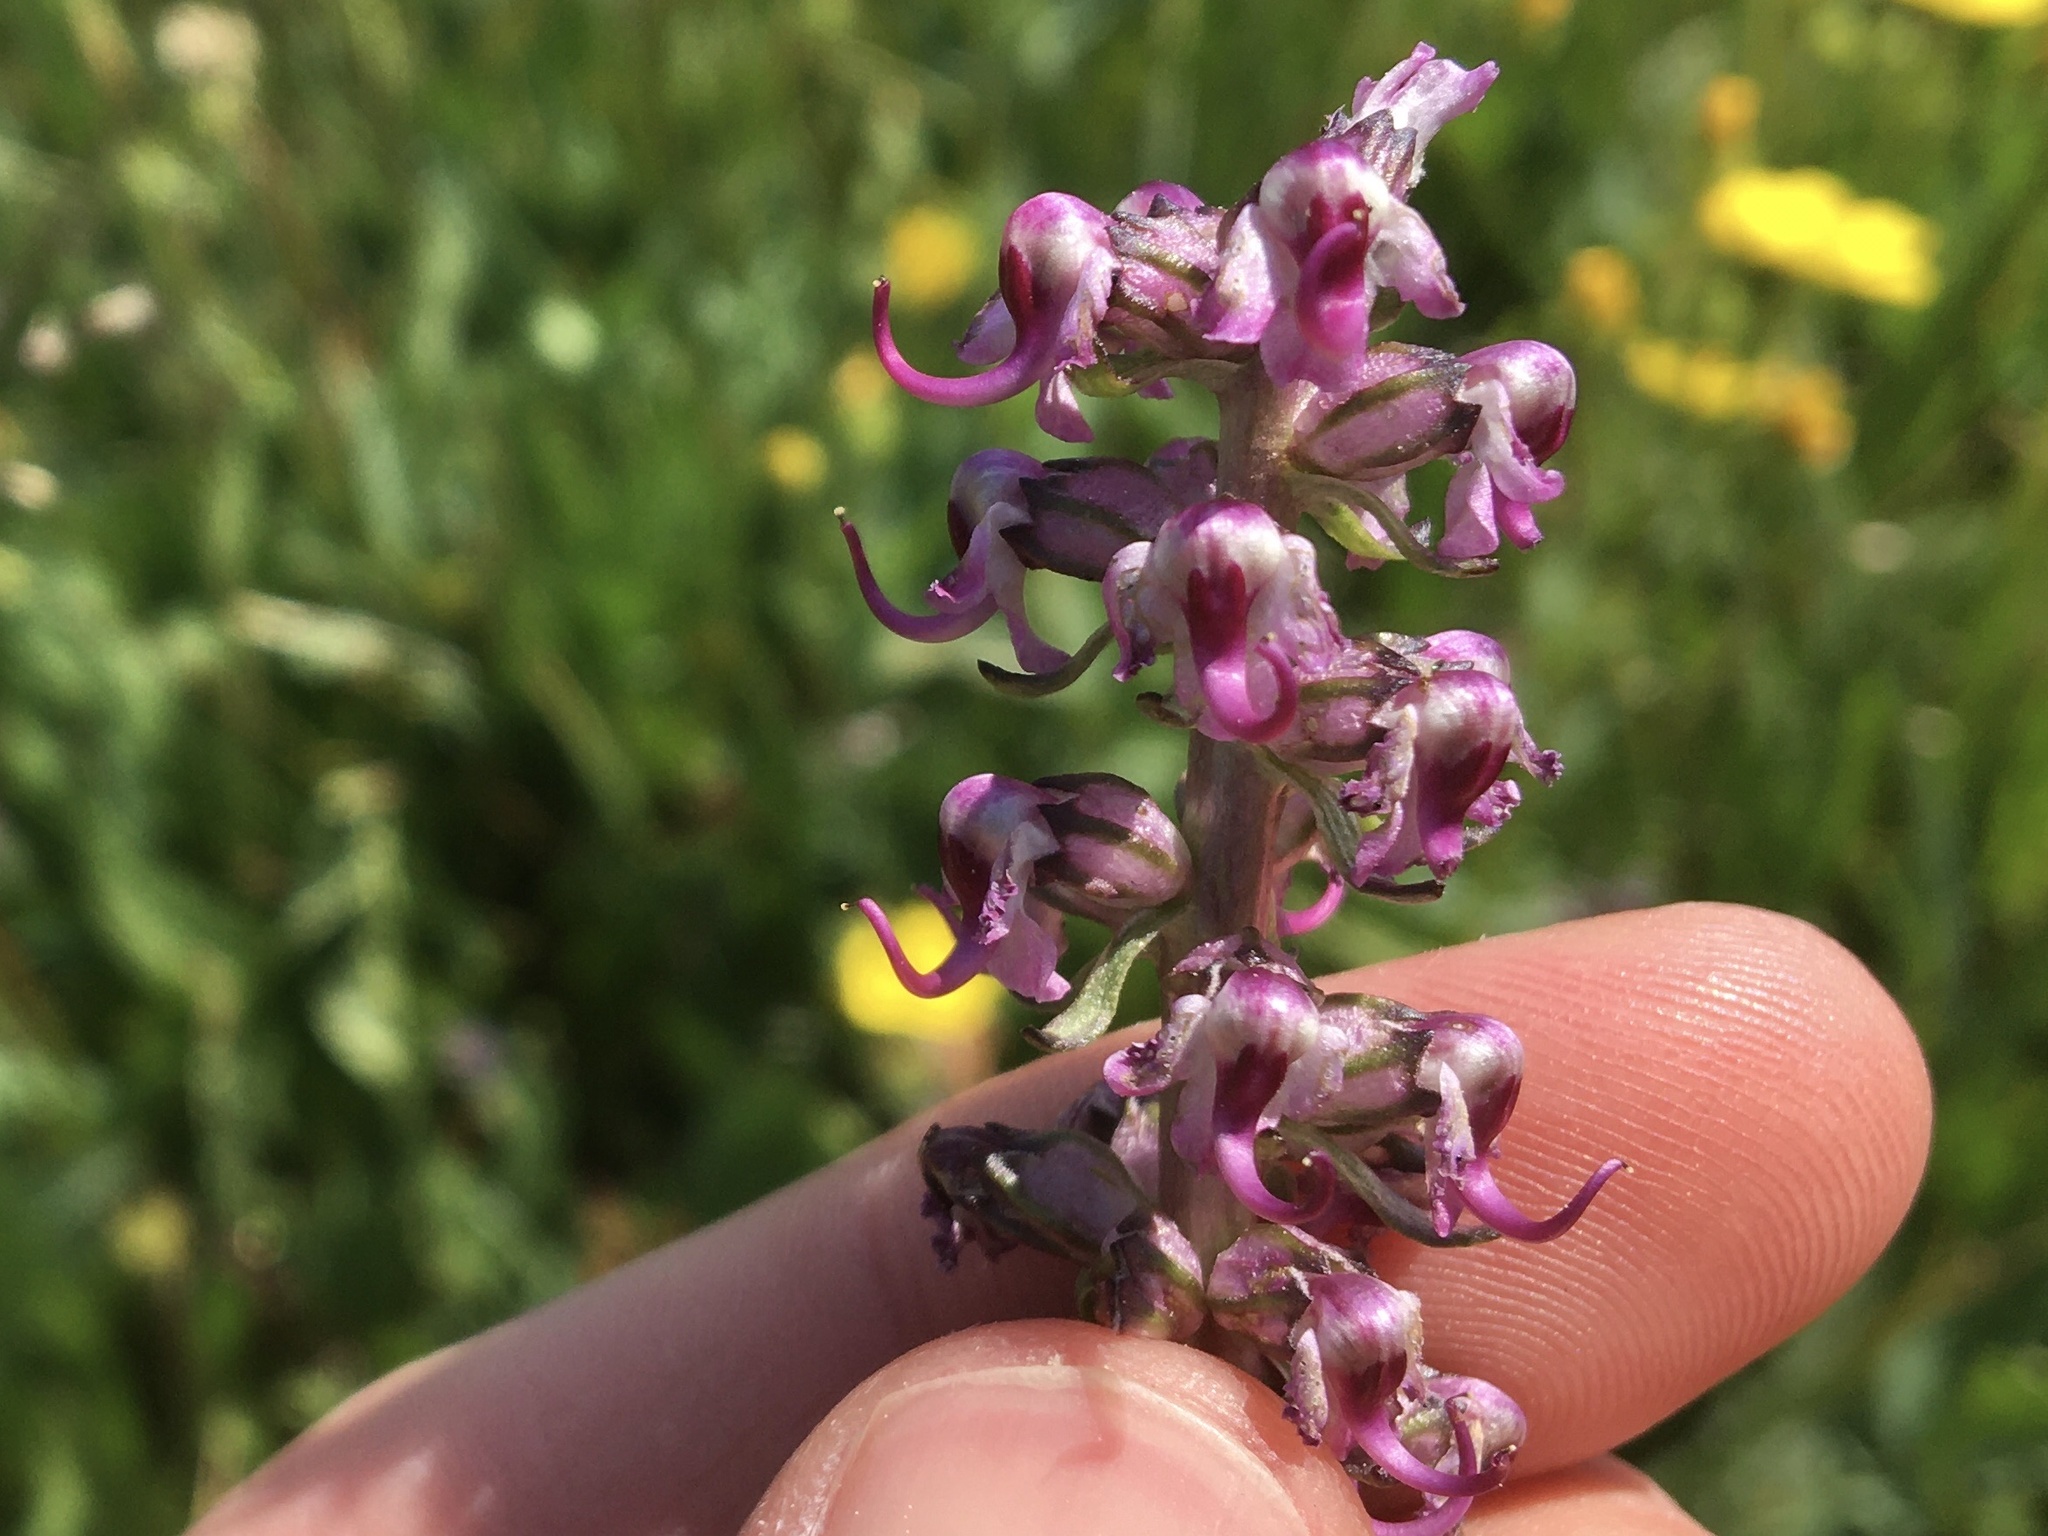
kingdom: Plantae
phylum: Tracheophyta
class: Magnoliopsida
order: Lamiales
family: Orobanchaceae
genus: Pedicularis
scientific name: Pedicularis groenlandica
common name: Elephant's-head
